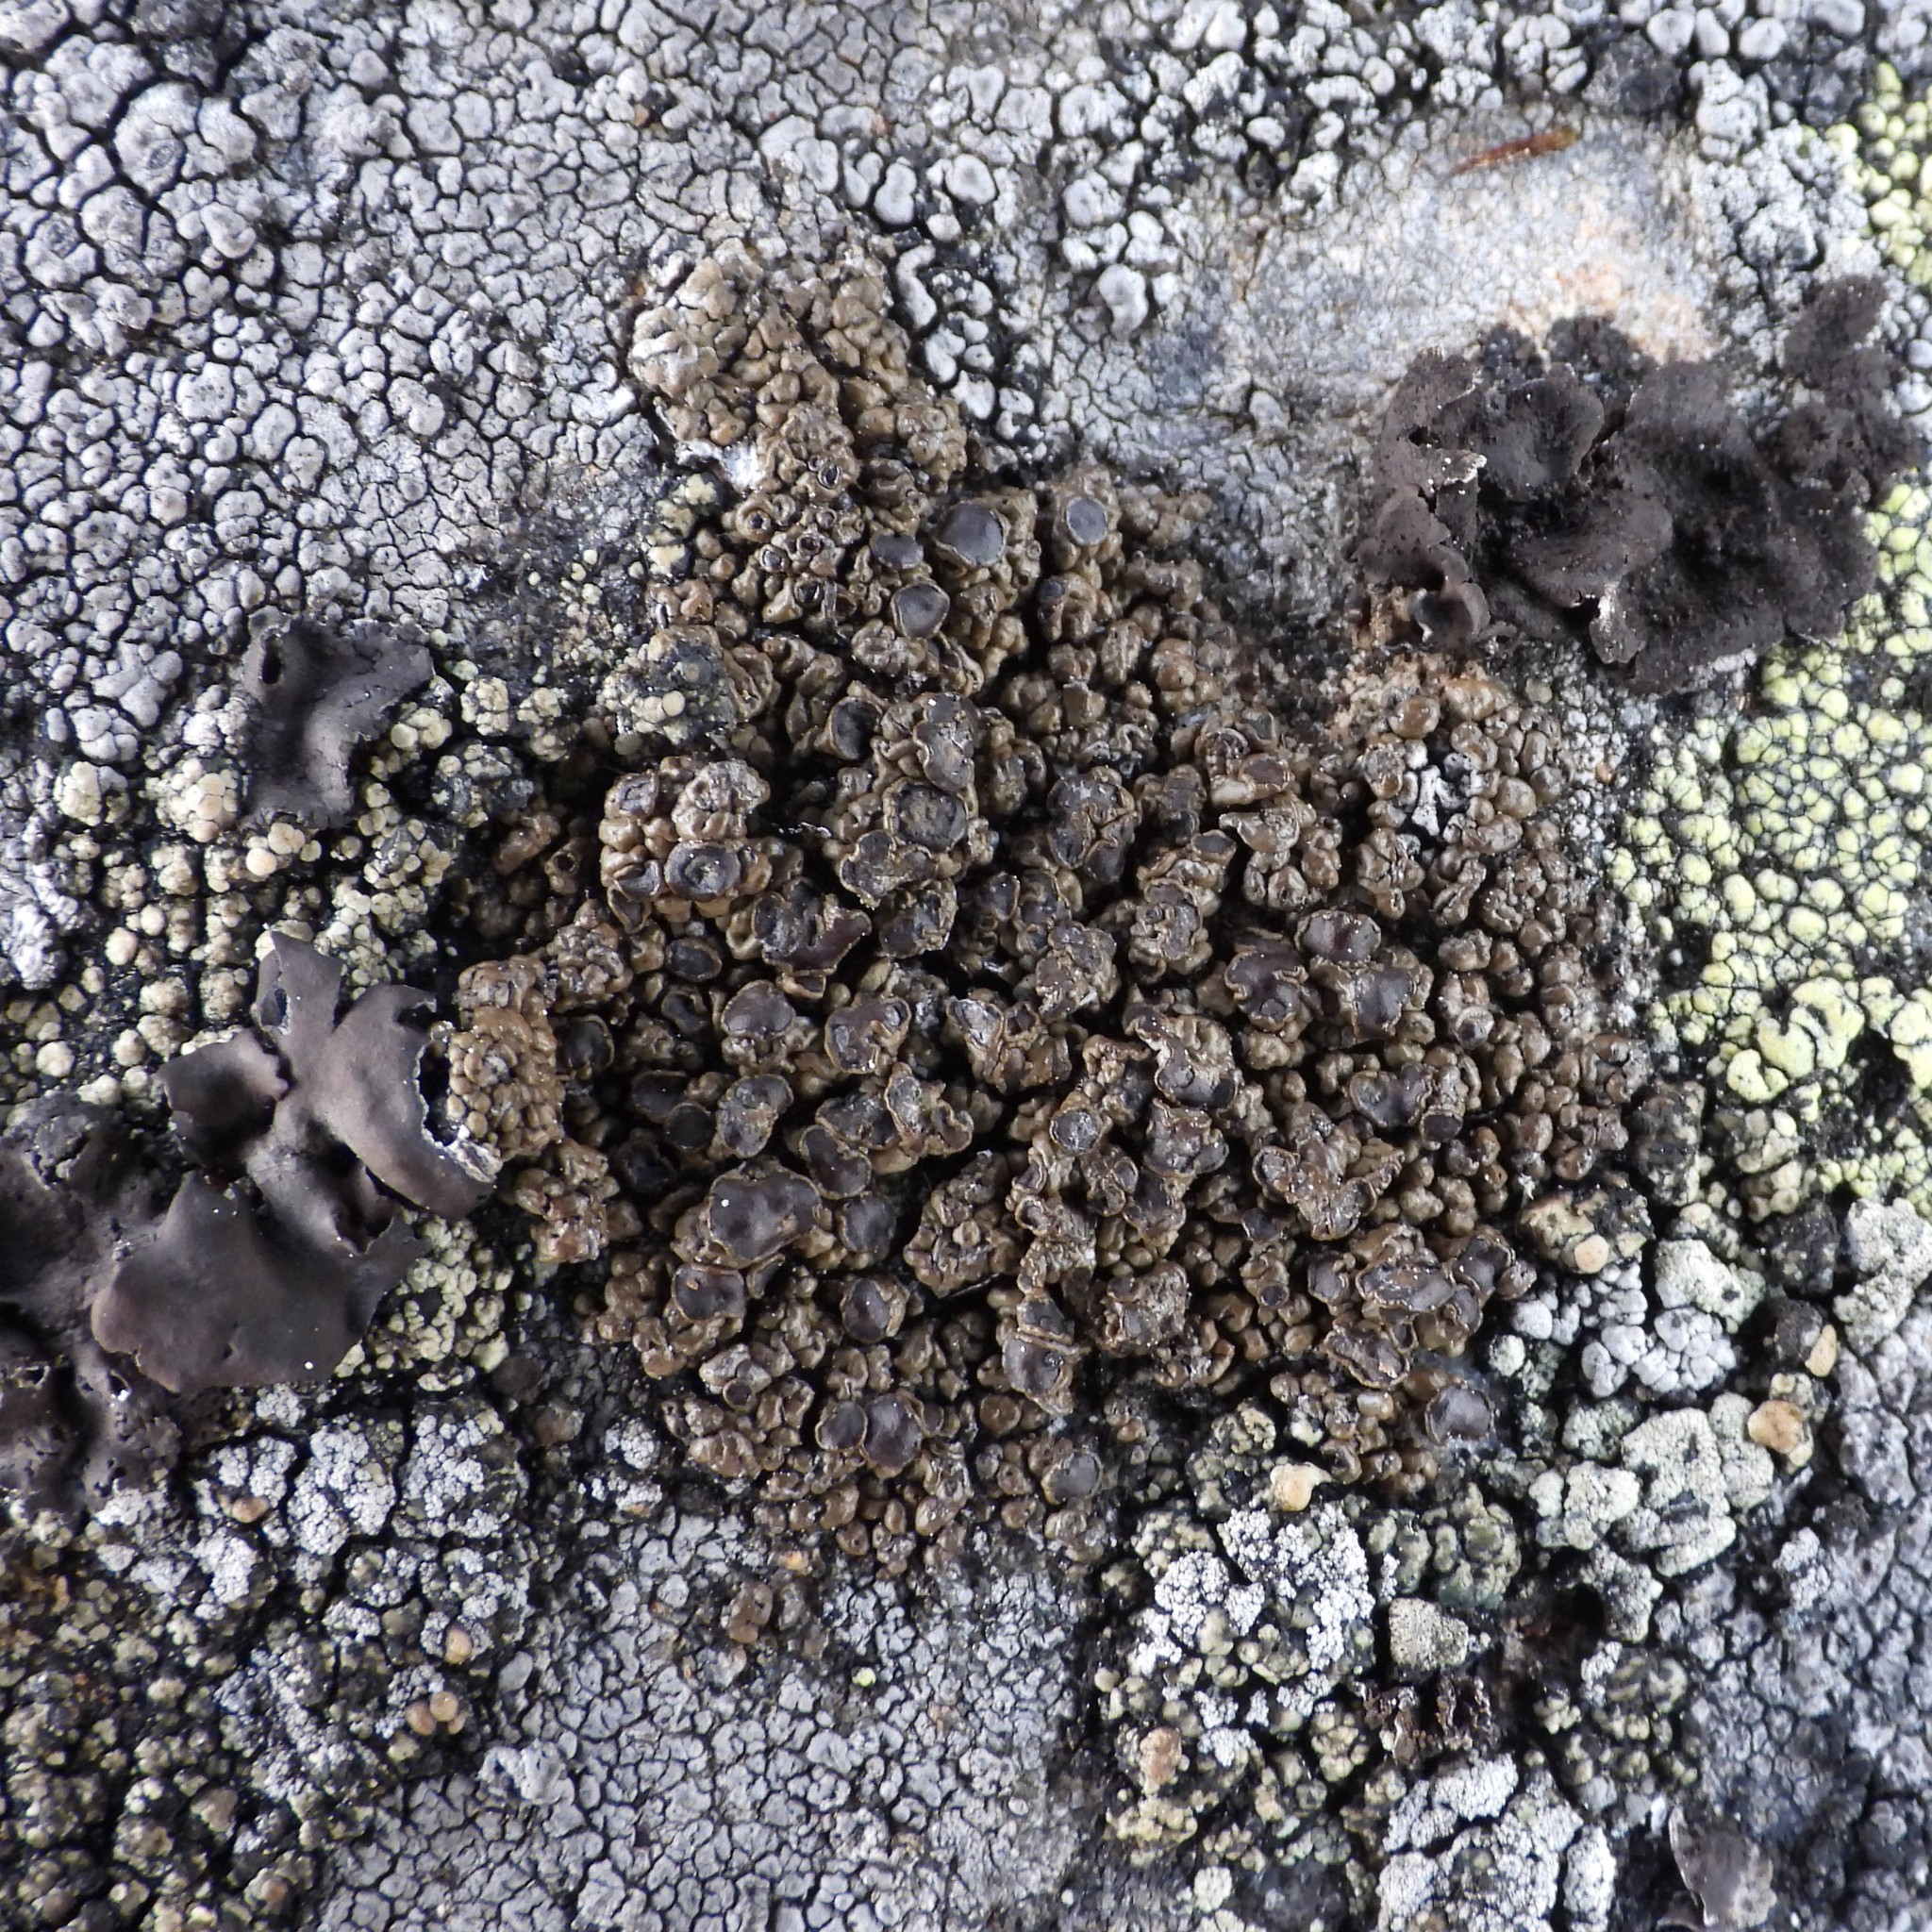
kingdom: Fungi
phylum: Ascomycota
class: Lecanoromycetes
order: Lecanorales
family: Parmeliaceae
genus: Protoparmelia
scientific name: Protoparmelia badia
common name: Chocolate rim lichen
